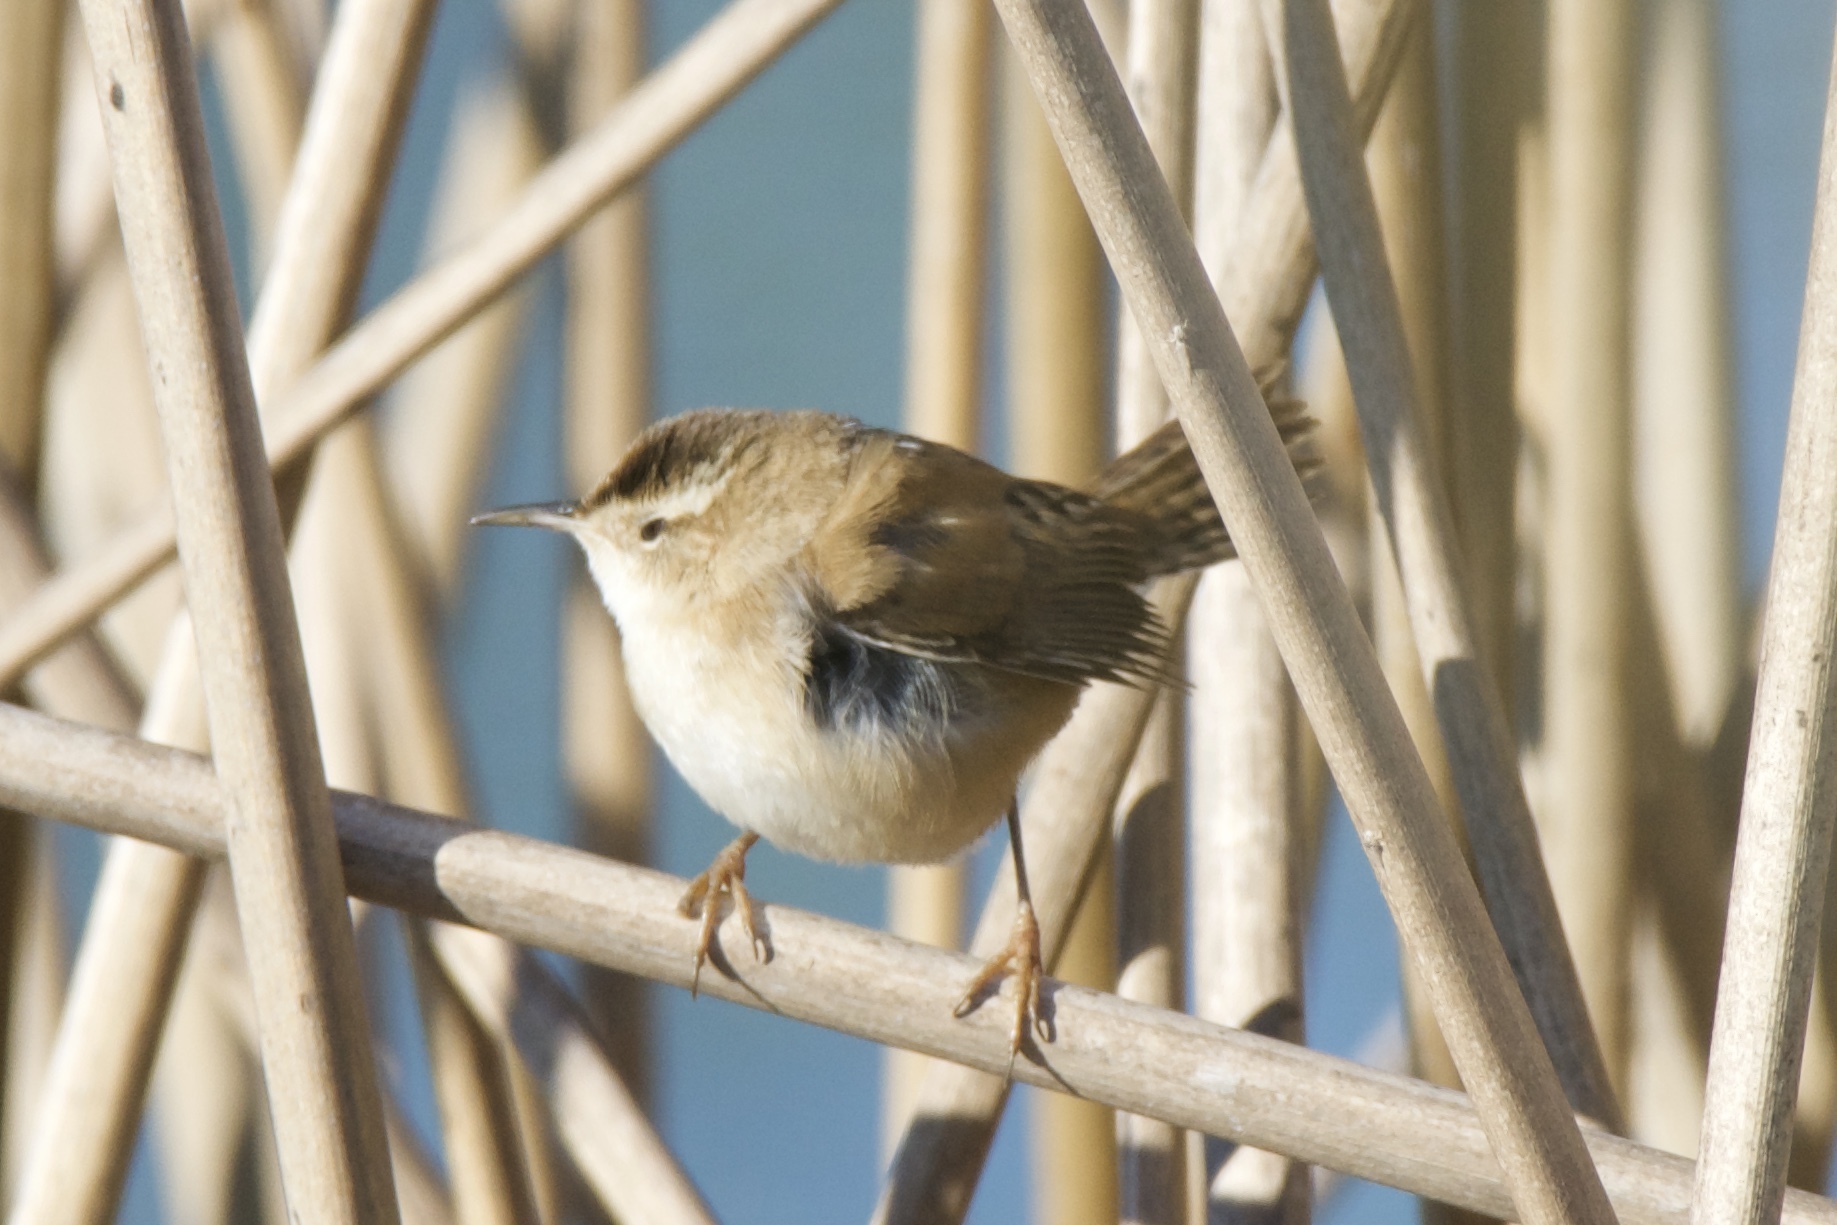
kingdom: Animalia
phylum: Chordata
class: Aves
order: Passeriformes
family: Troglodytidae
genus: Cistothorus
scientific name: Cistothorus palustris
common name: Marsh wren
